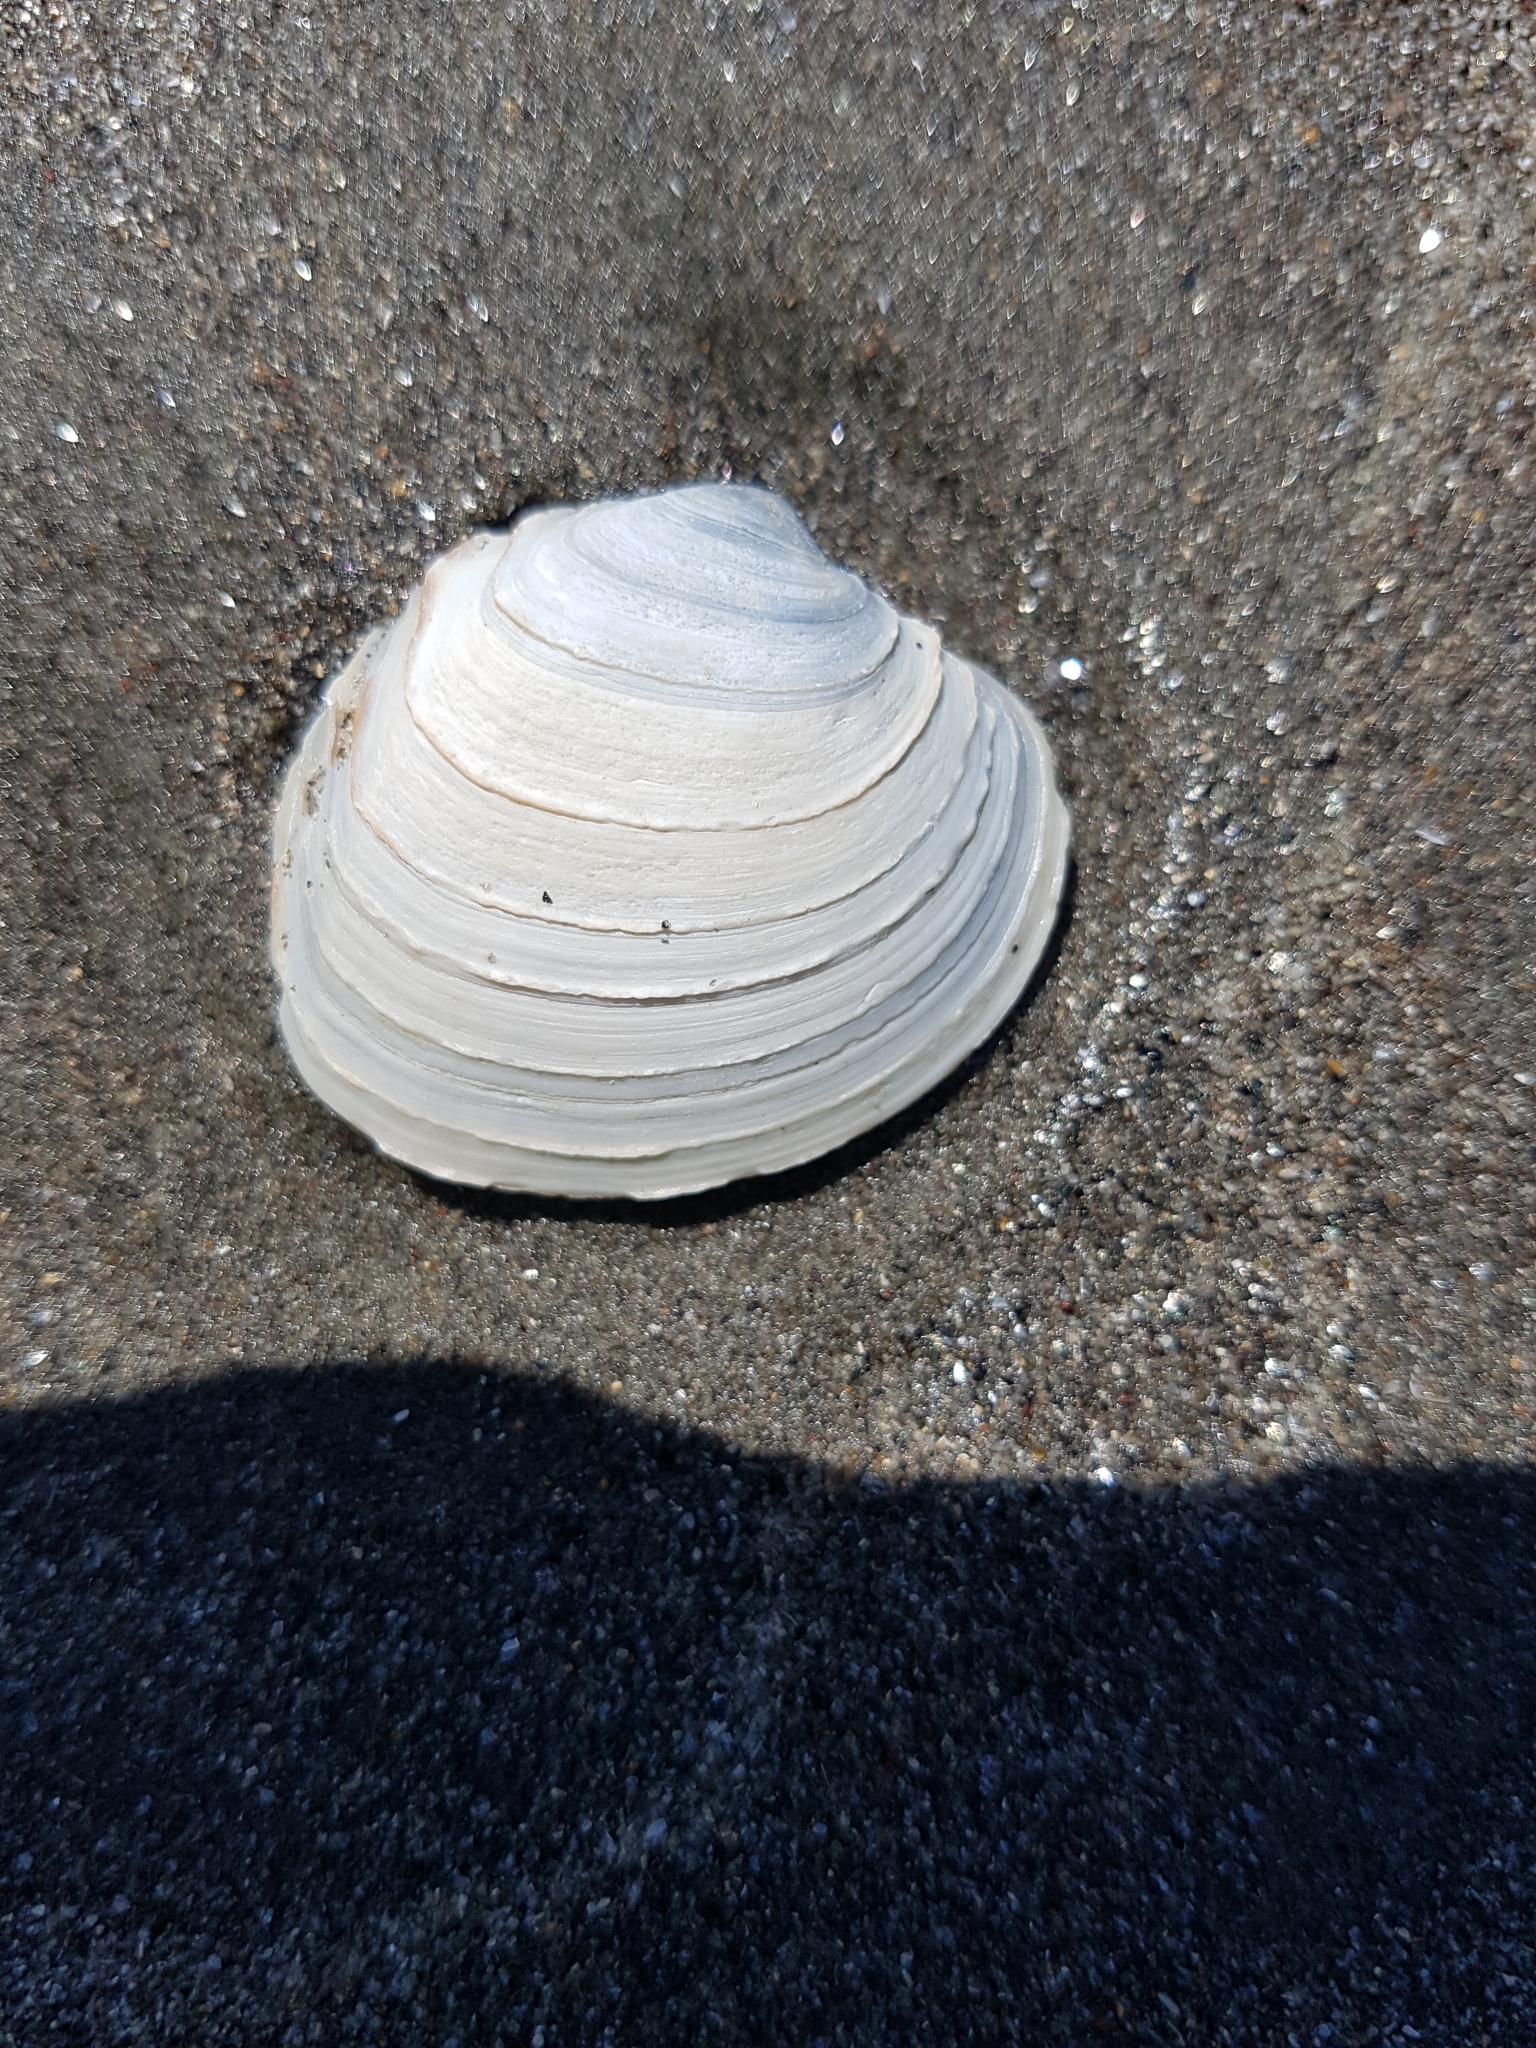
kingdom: Animalia
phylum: Mollusca
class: Bivalvia
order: Venerida
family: Veneridae
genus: Bassina
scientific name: Bassina yatei
